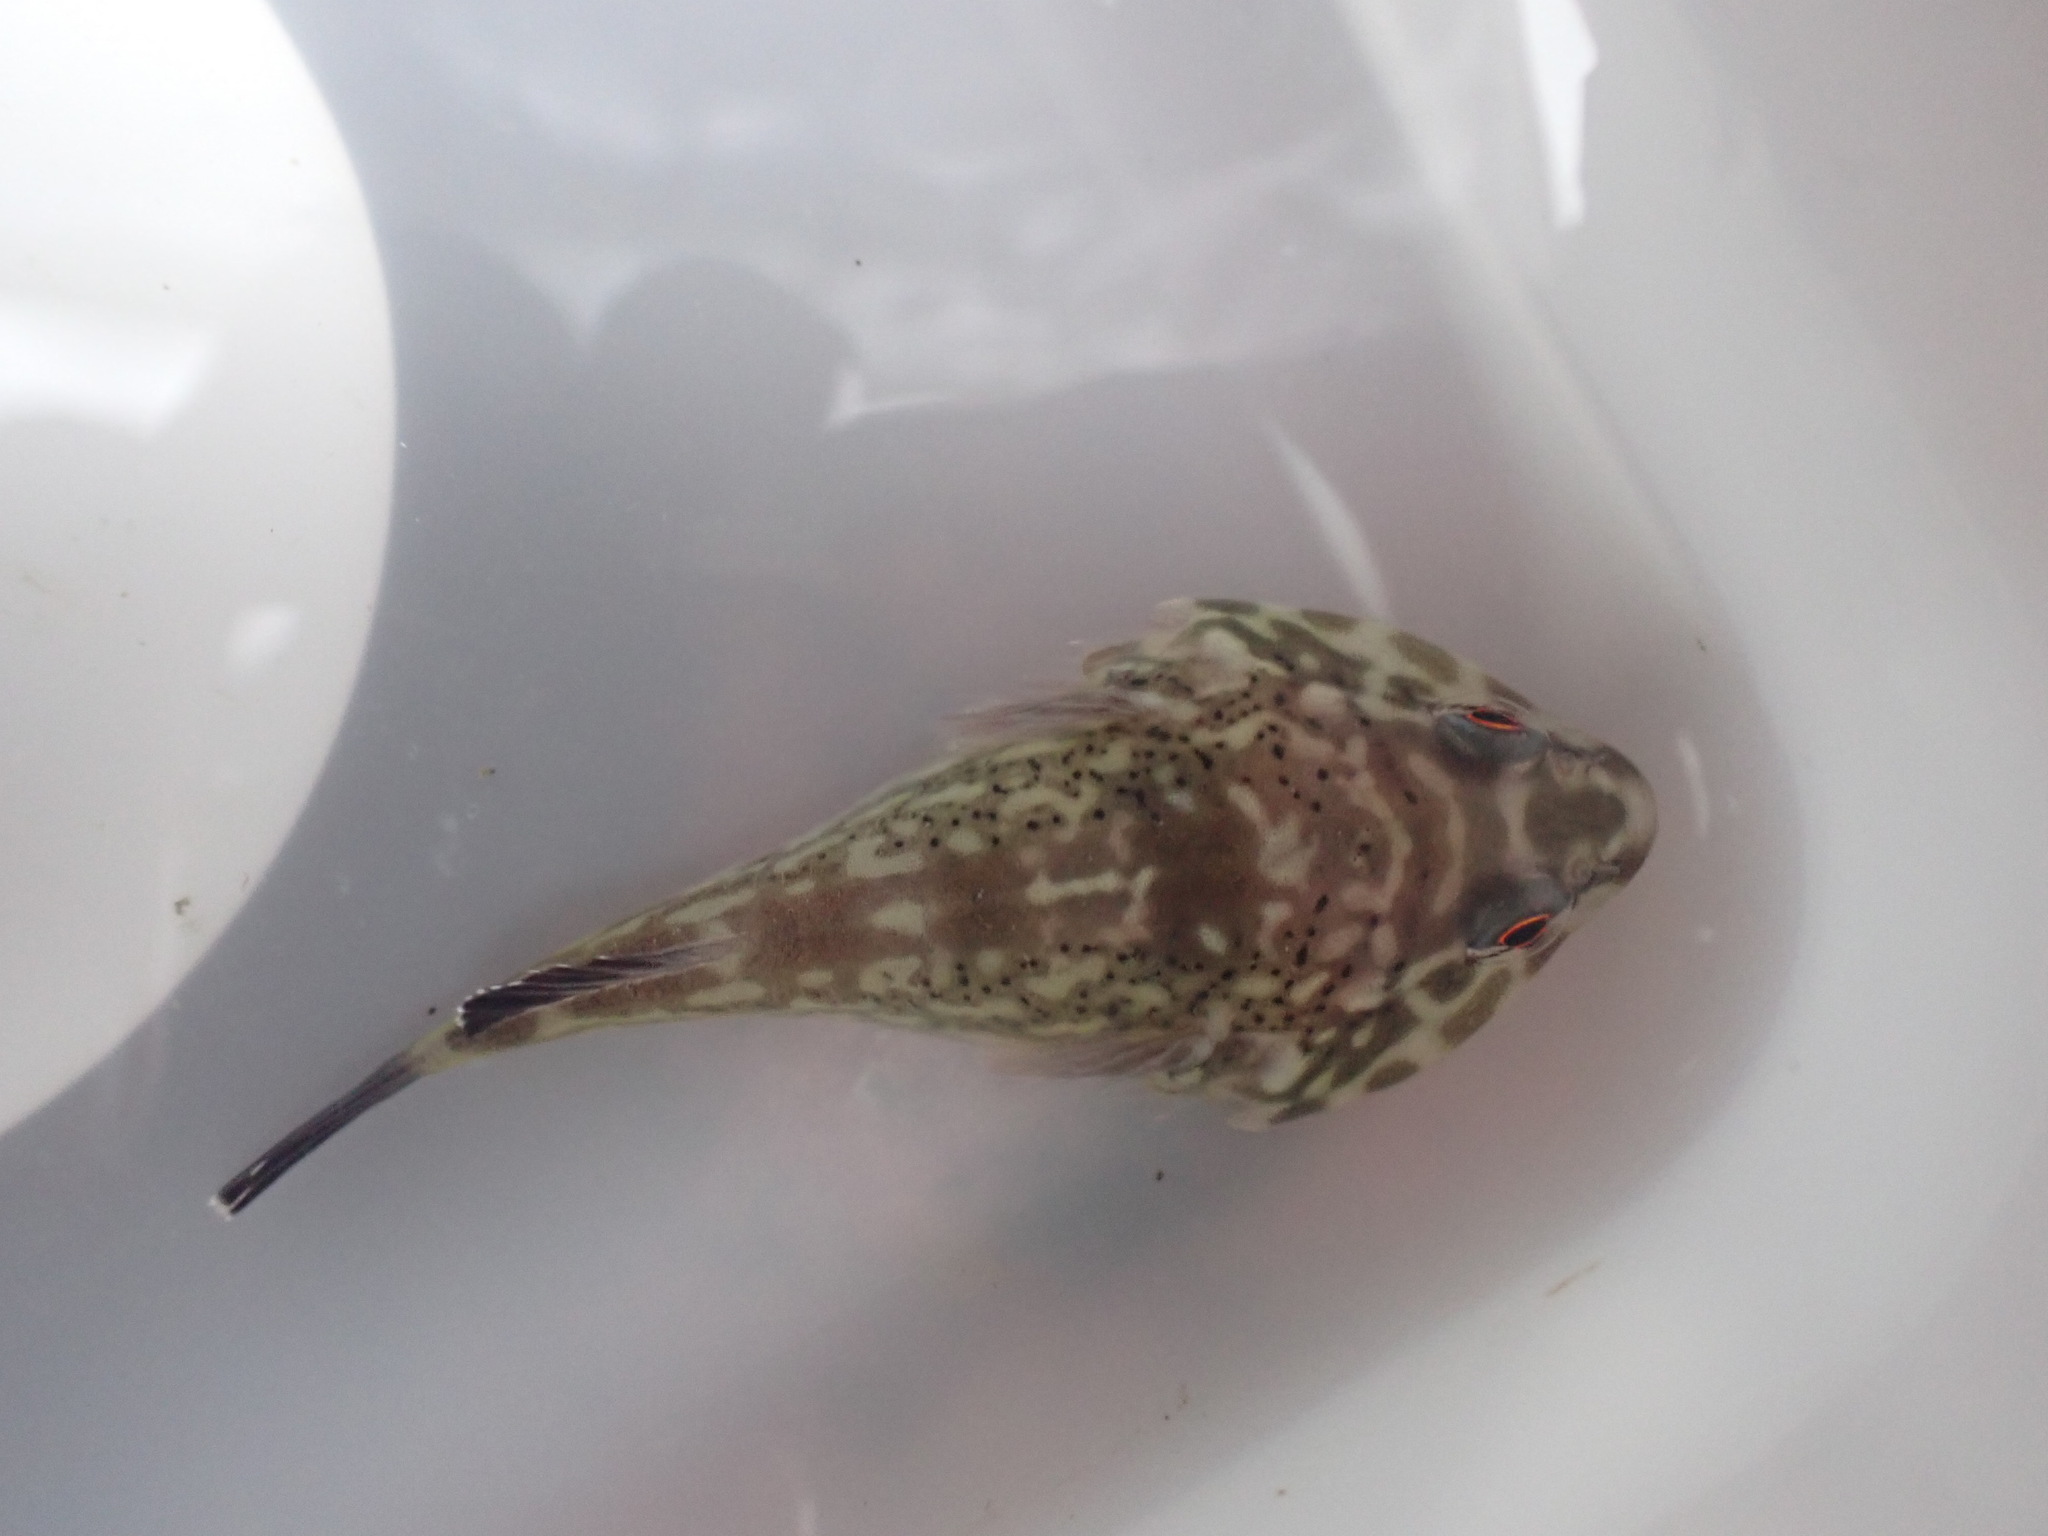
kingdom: Animalia
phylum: Chordata
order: Gobiesociformes
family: Gobiesocidae
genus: Diplocrepis
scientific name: Diplocrepis puniceus
